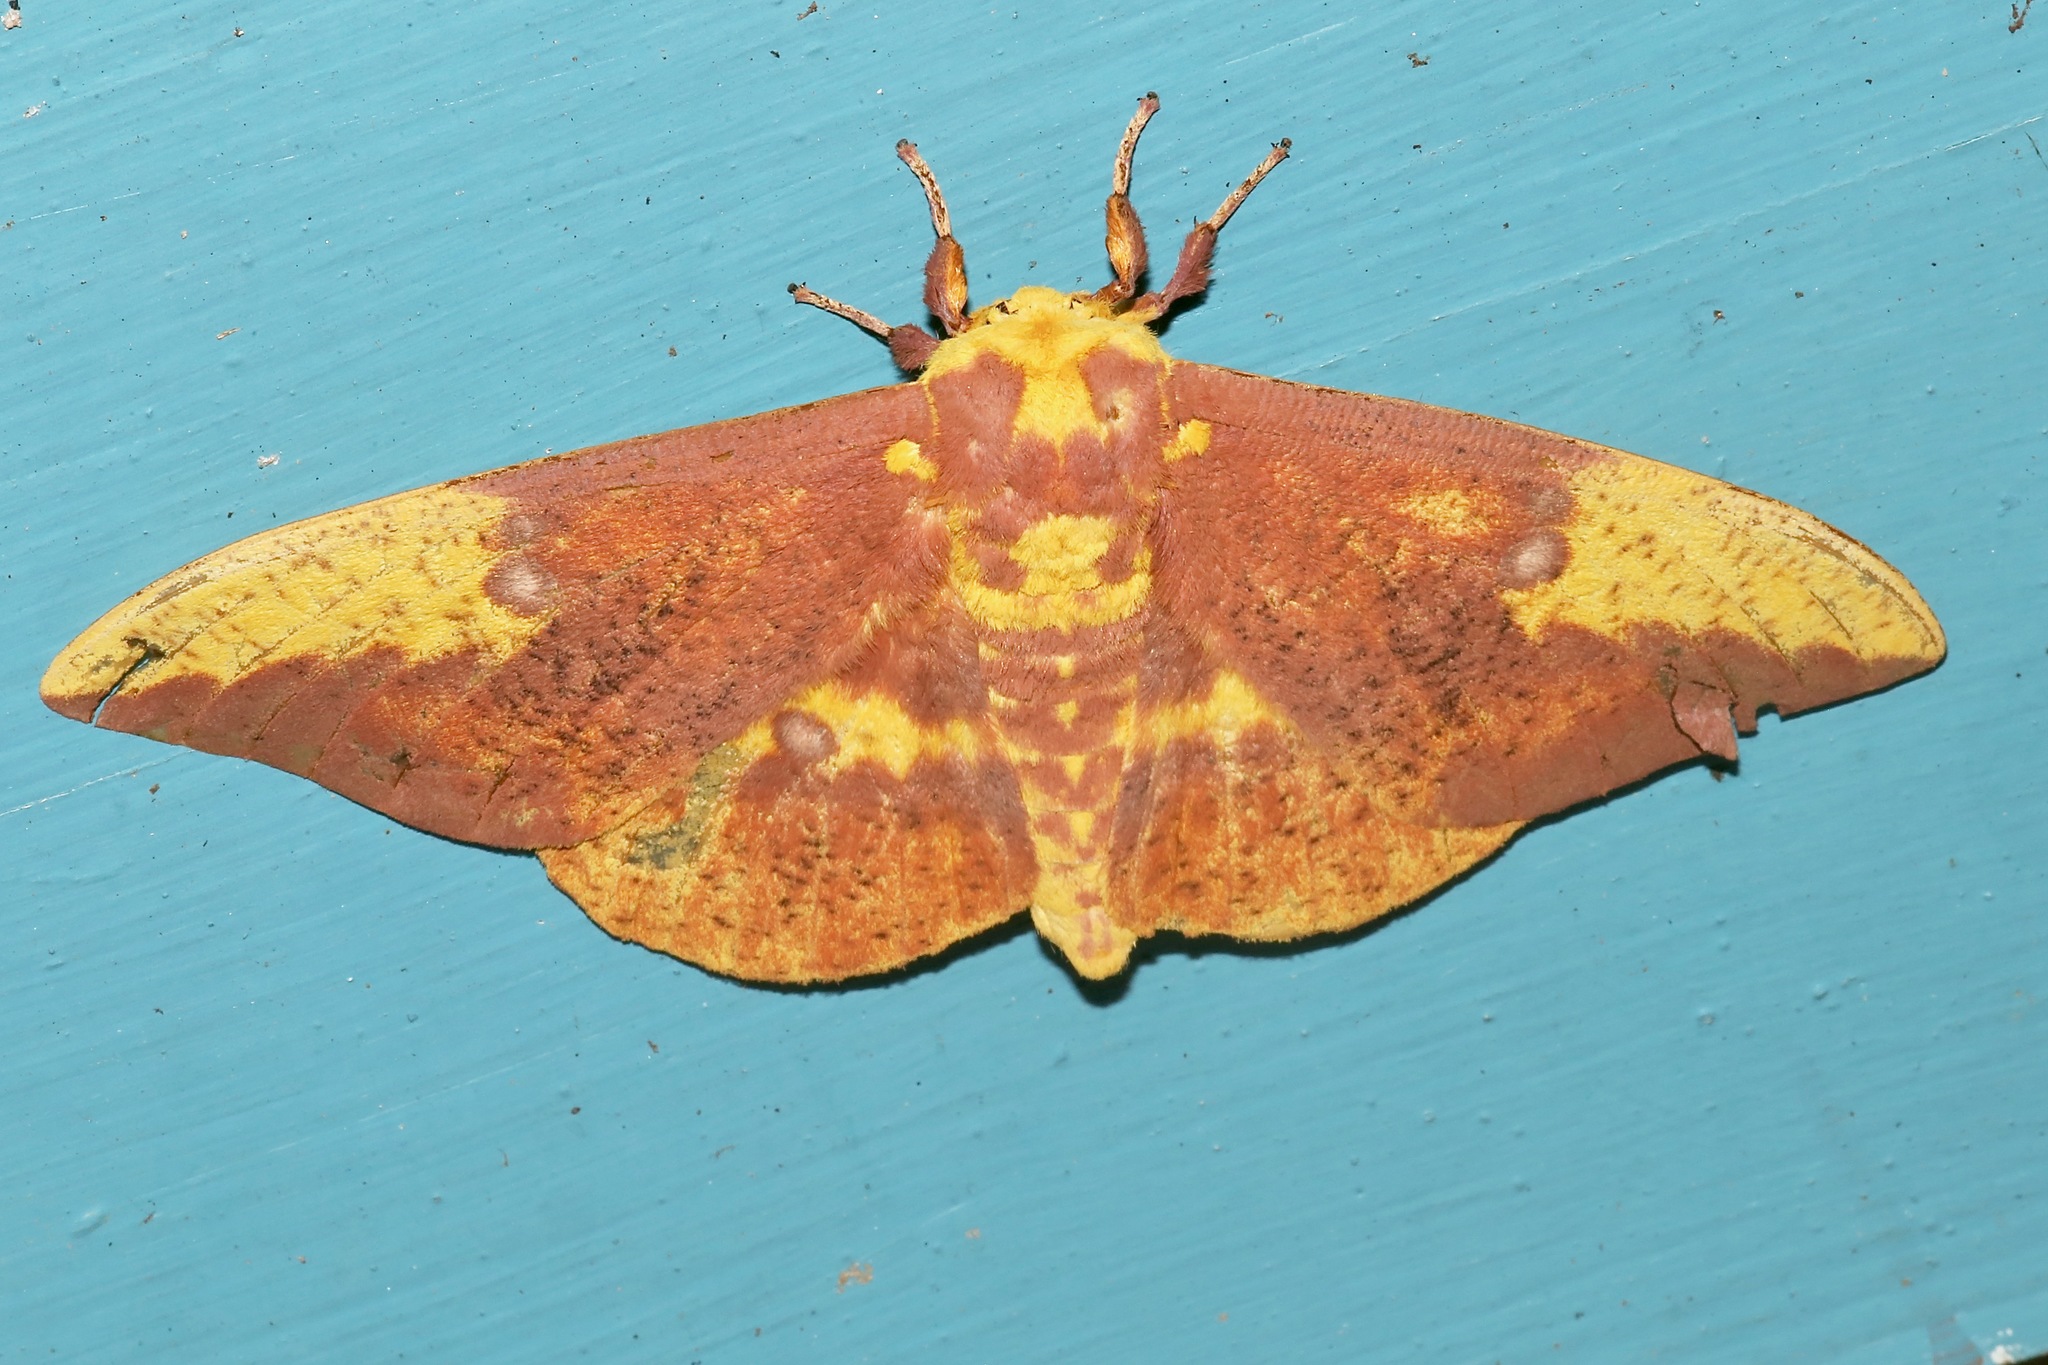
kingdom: Animalia
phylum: Arthropoda
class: Insecta
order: Lepidoptera
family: Saturniidae
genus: Eacles
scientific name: Eacles imperialis
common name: Imperial moth
